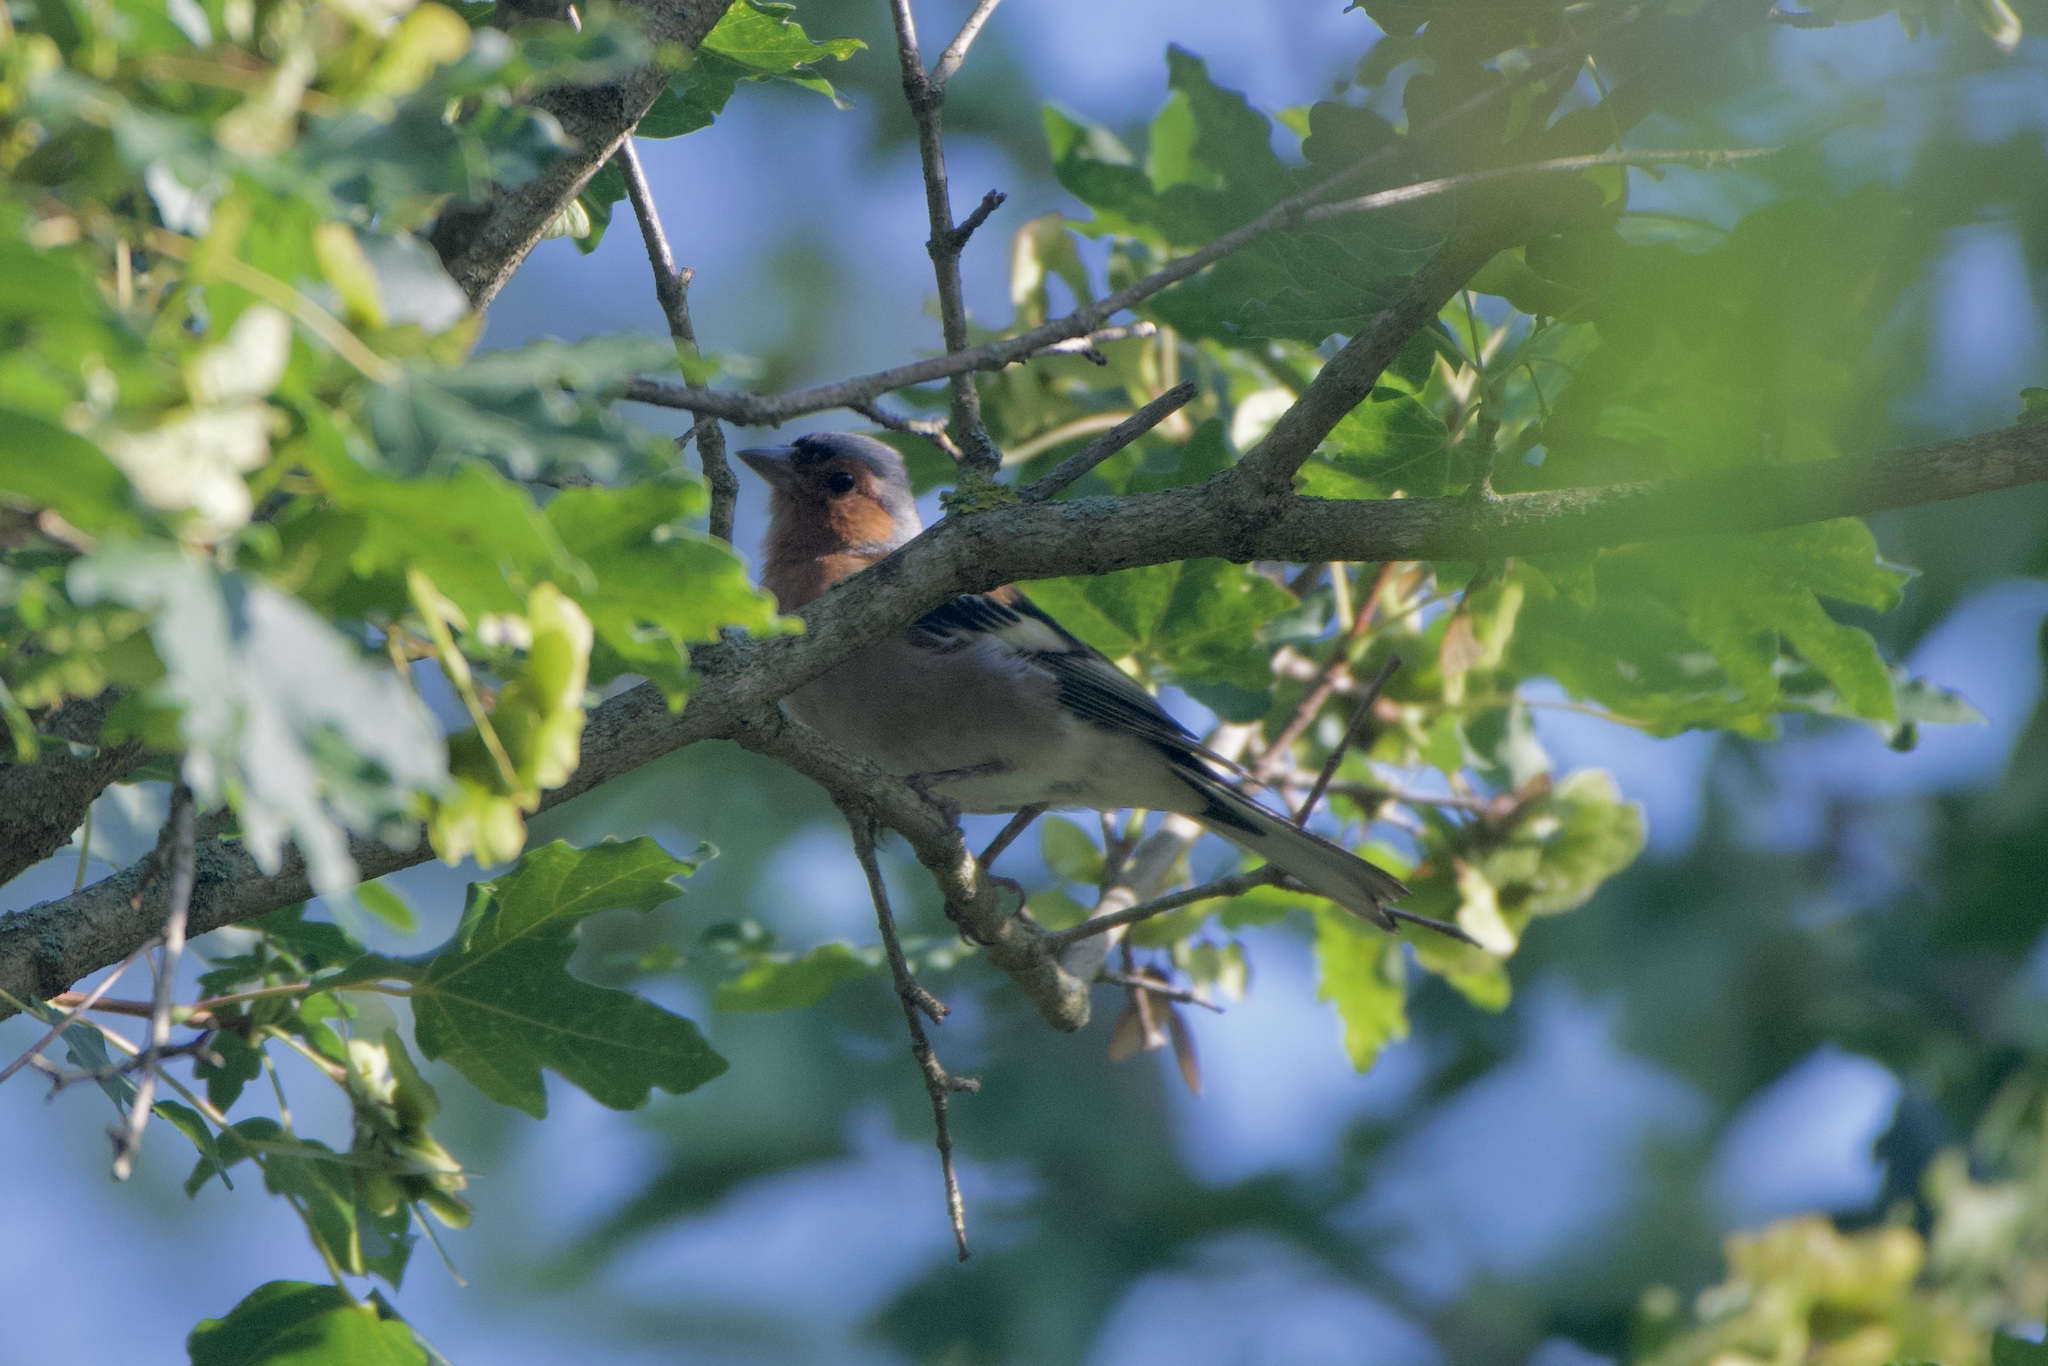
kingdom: Animalia
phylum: Chordata
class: Aves
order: Passeriformes
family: Fringillidae
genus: Fringilla
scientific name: Fringilla coelebs
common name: Common chaffinch
